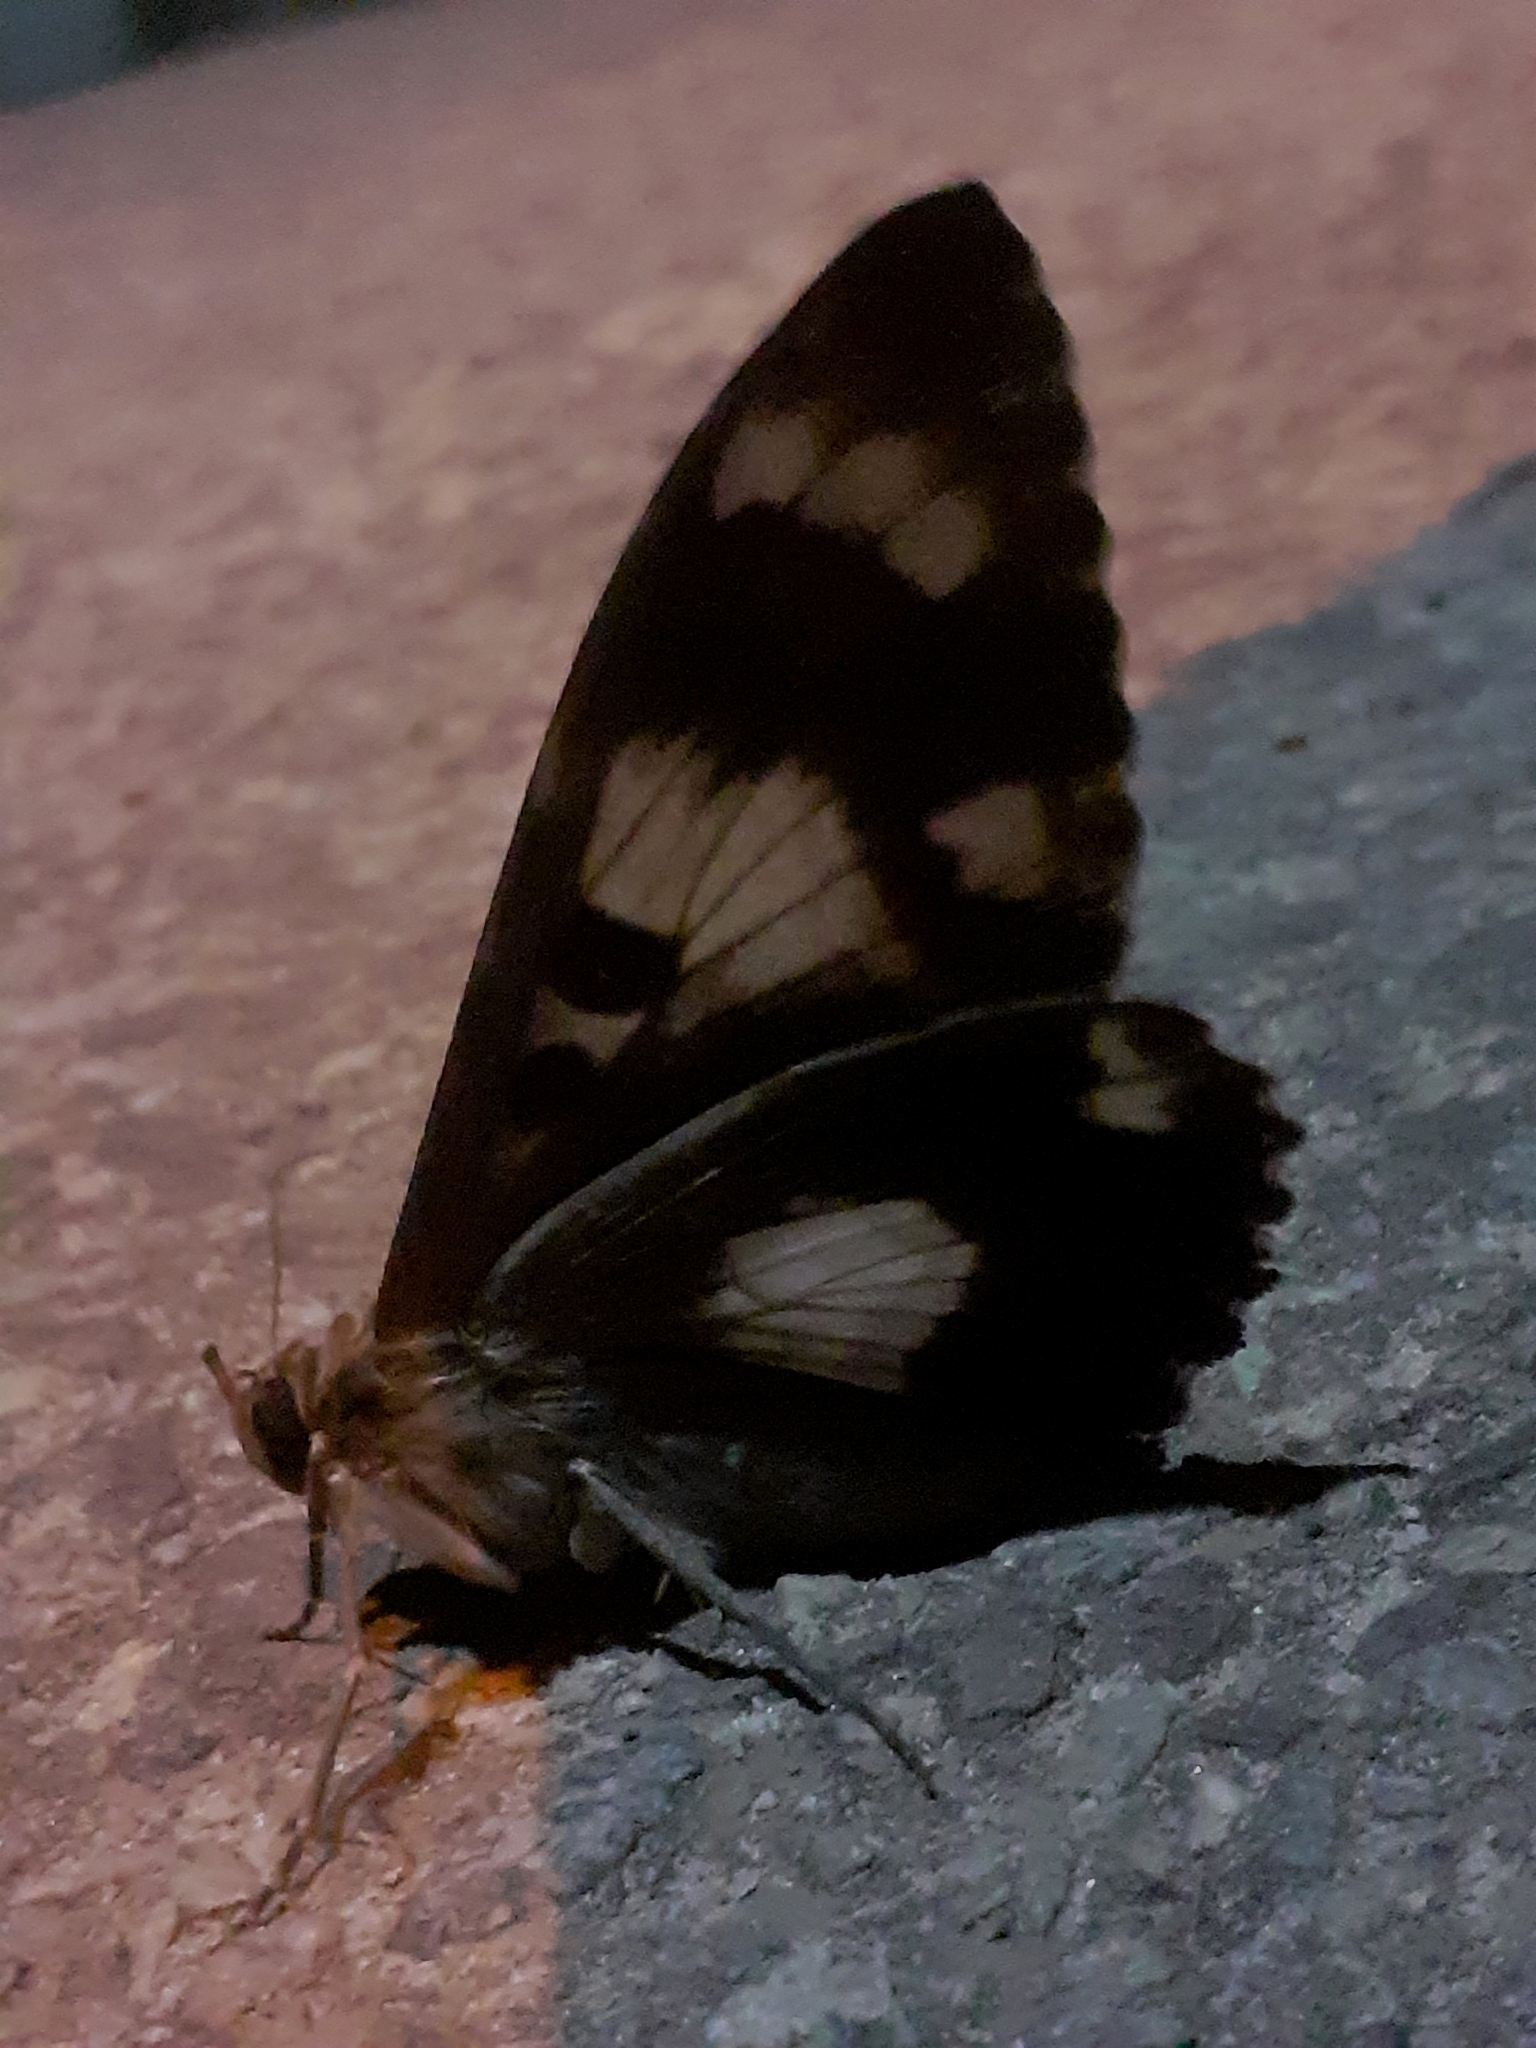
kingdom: Animalia
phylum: Arthropoda
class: Insecta
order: Lepidoptera
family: Erebidae
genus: Letis
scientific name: Letis specularis
